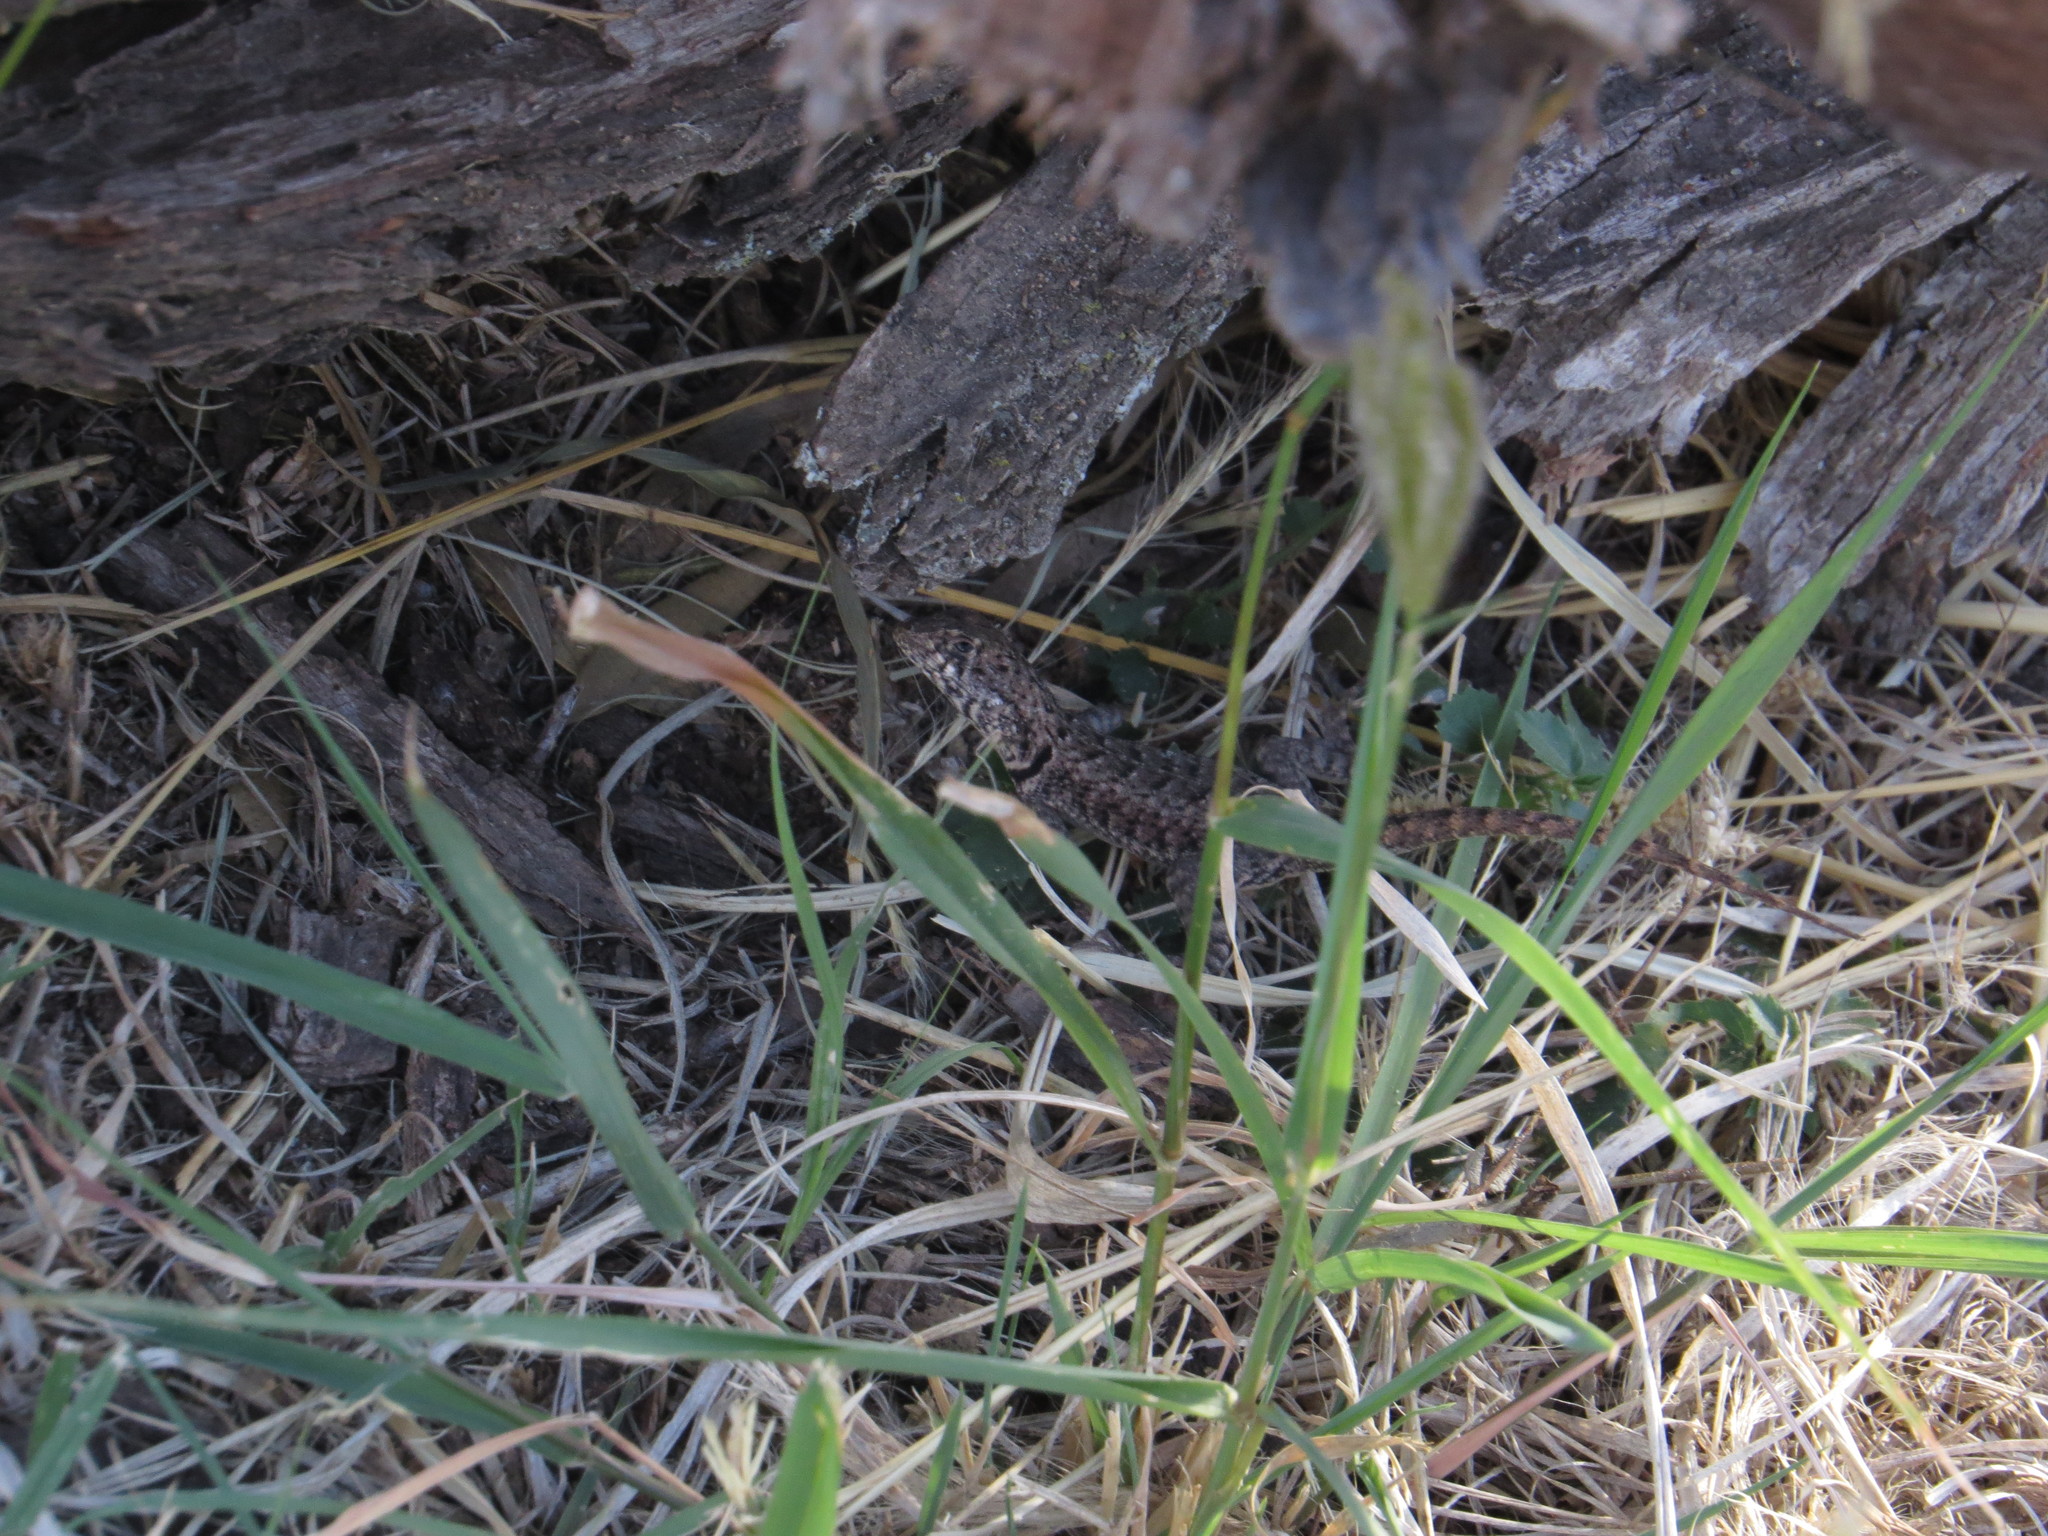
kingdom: Animalia
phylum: Chordata
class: Squamata
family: Tropiduridae
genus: Tropidurus
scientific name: Tropidurus etheridgei
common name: Etheridge's lava lizard
